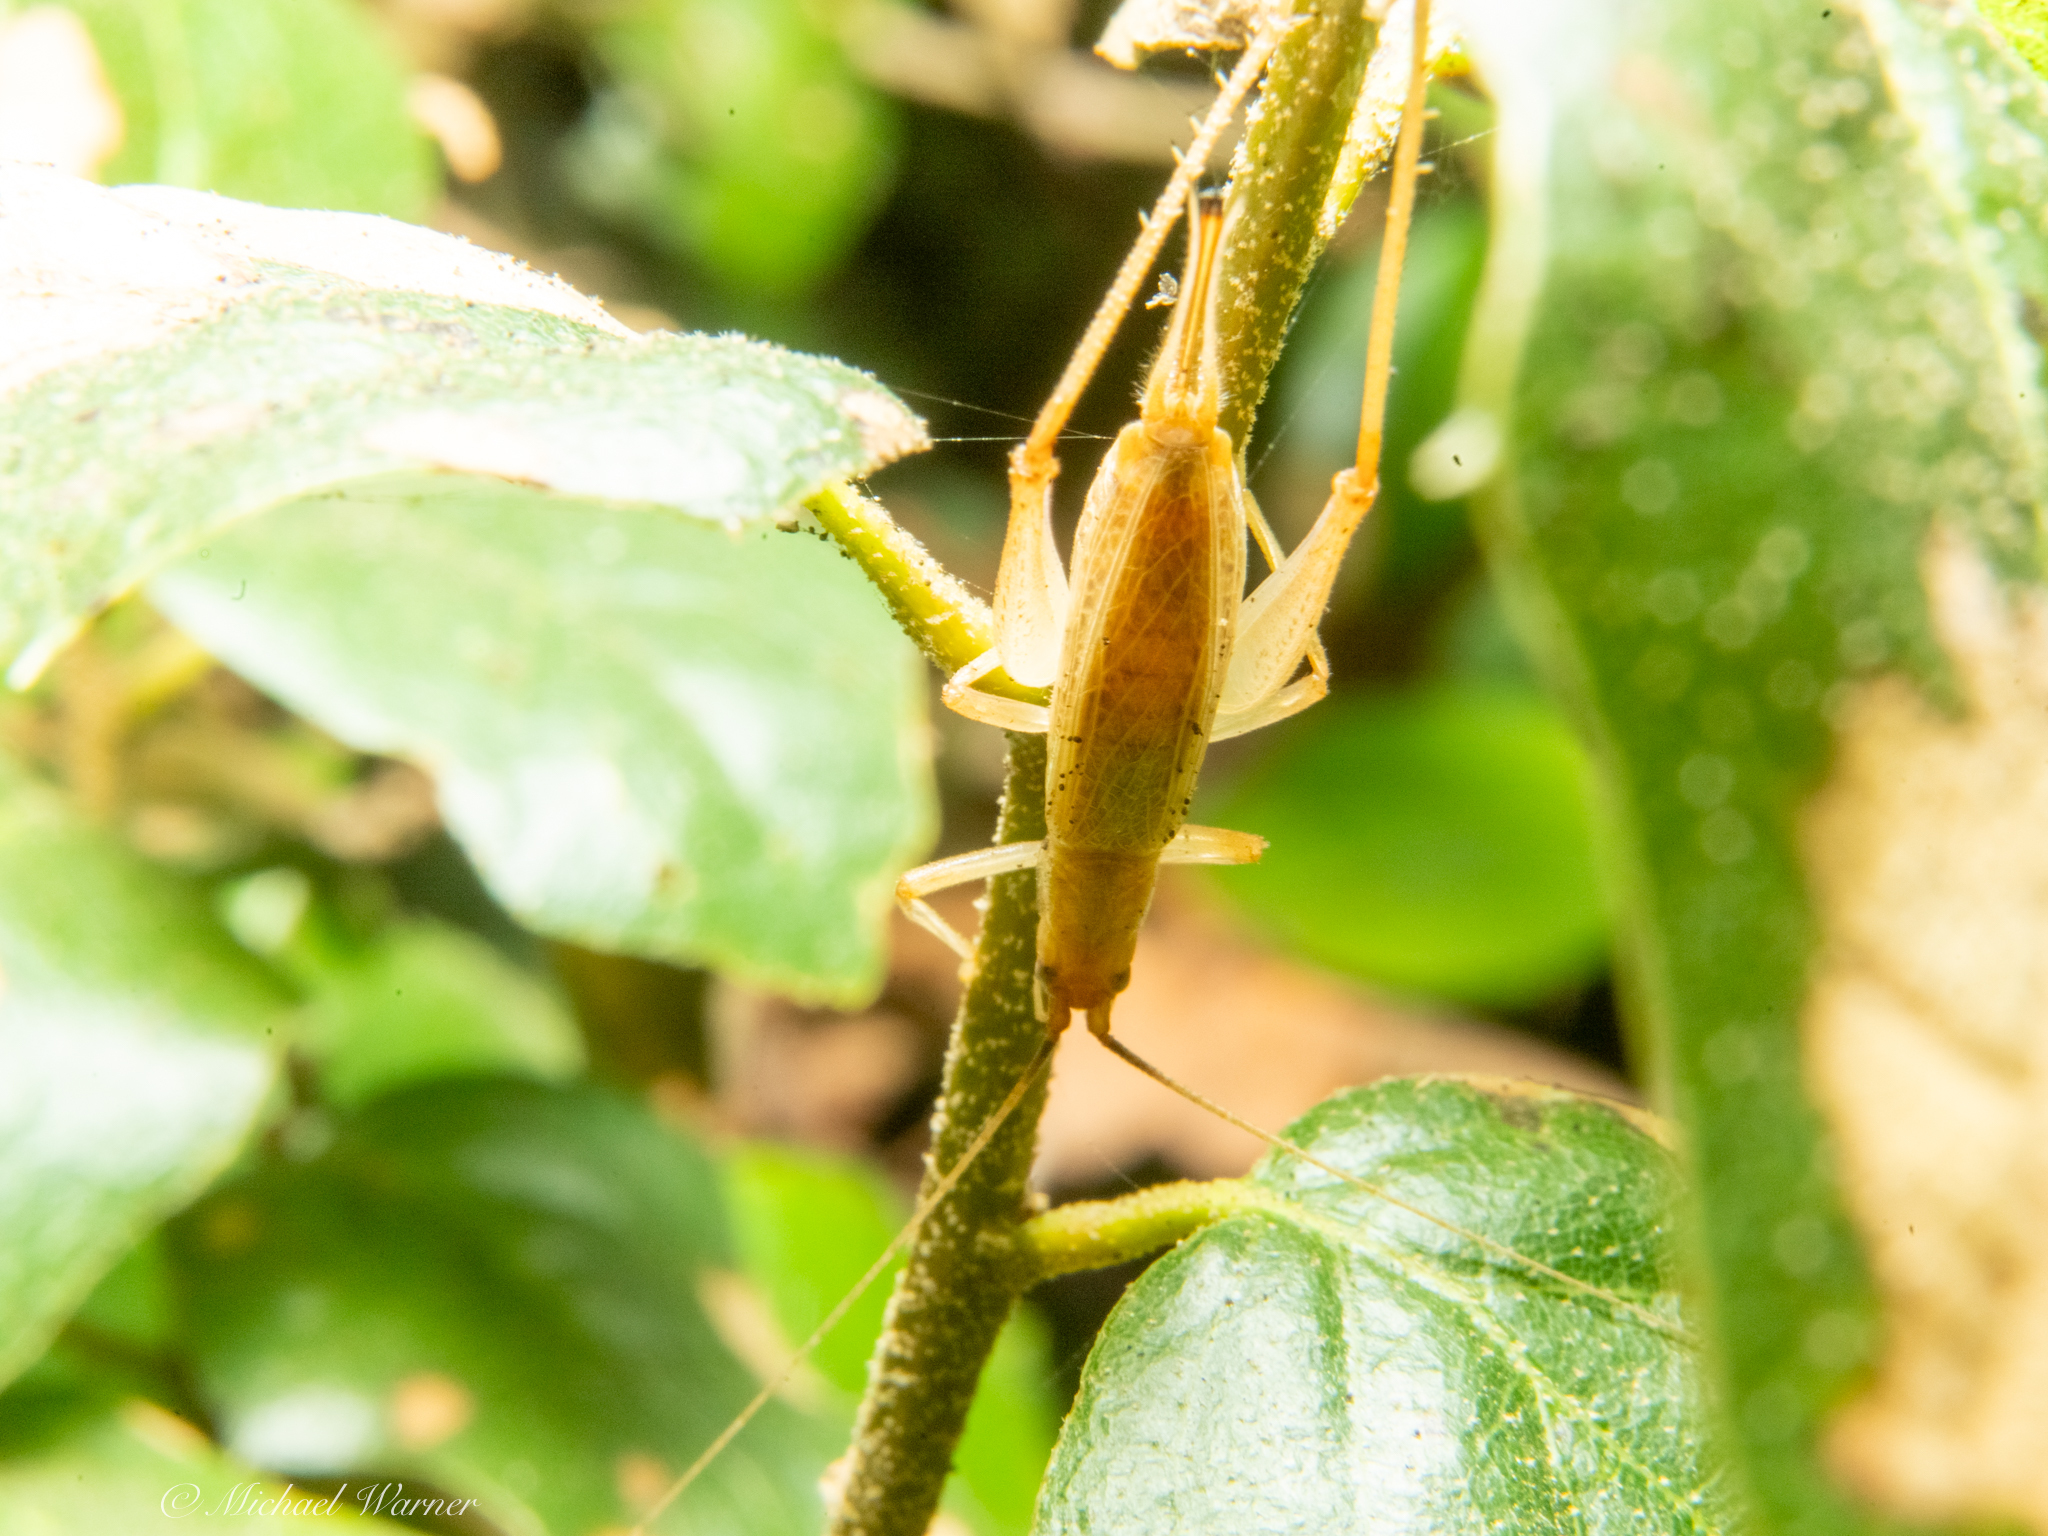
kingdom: Animalia
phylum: Arthropoda
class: Insecta
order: Orthoptera
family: Gryllidae
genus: Oecanthus
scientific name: Oecanthus californicus
